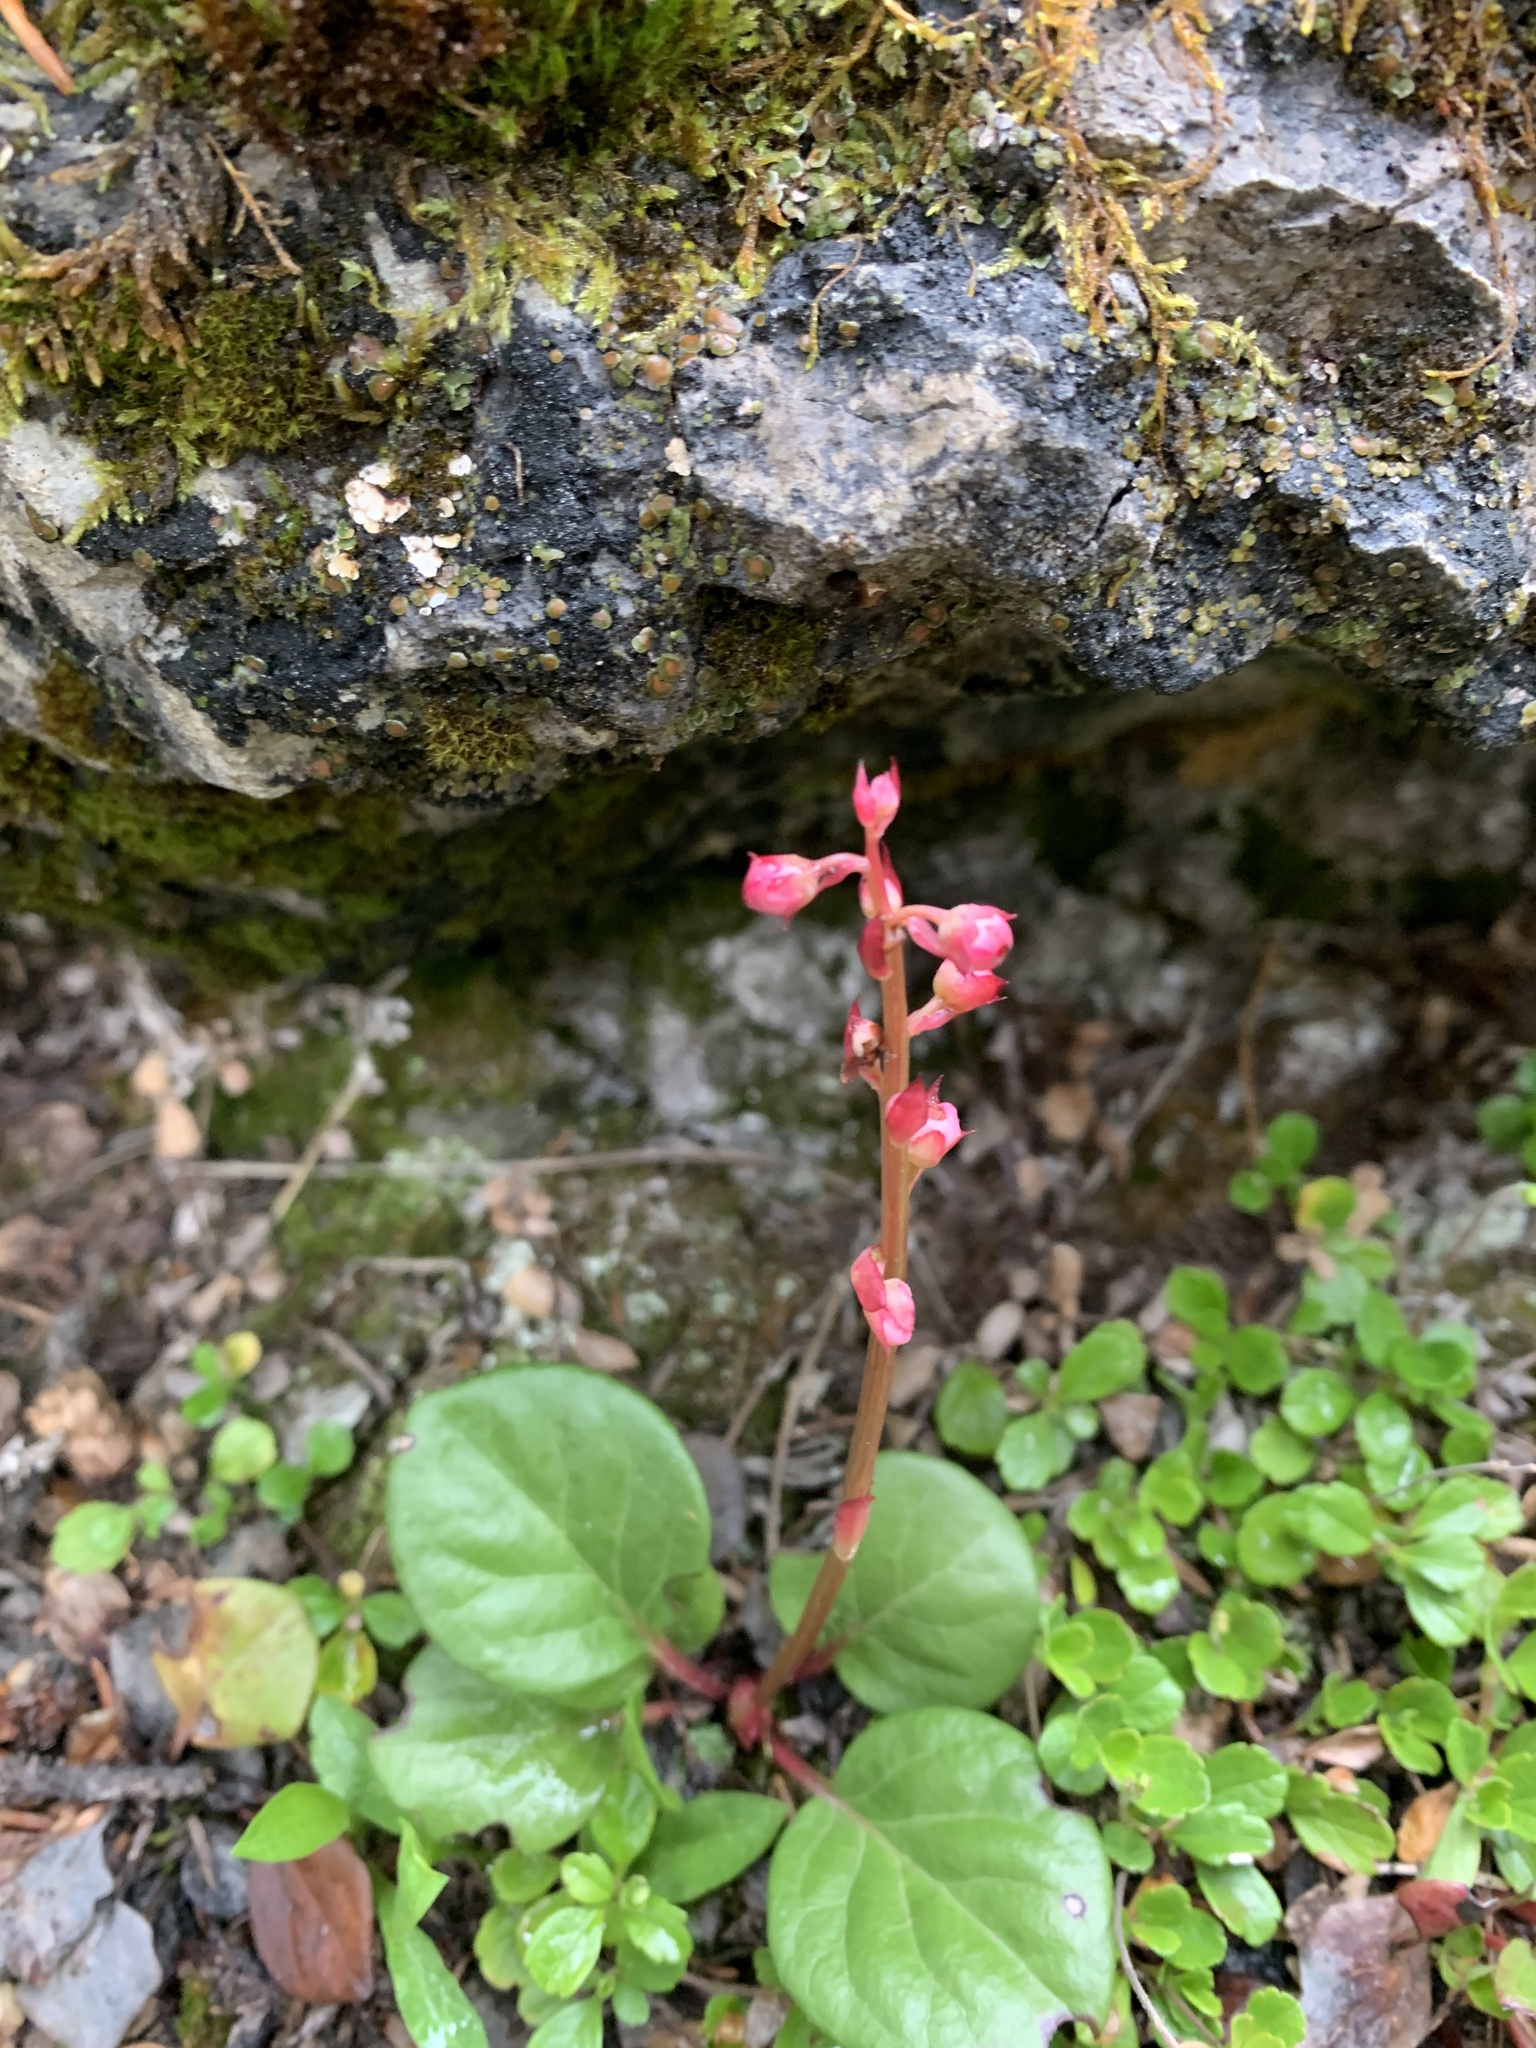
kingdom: Plantae
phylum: Tracheophyta
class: Magnoliopsida
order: Ericales
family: Ericaceae
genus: Pyrola
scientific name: Pyrola asarifolia
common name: Bog wintergreen
